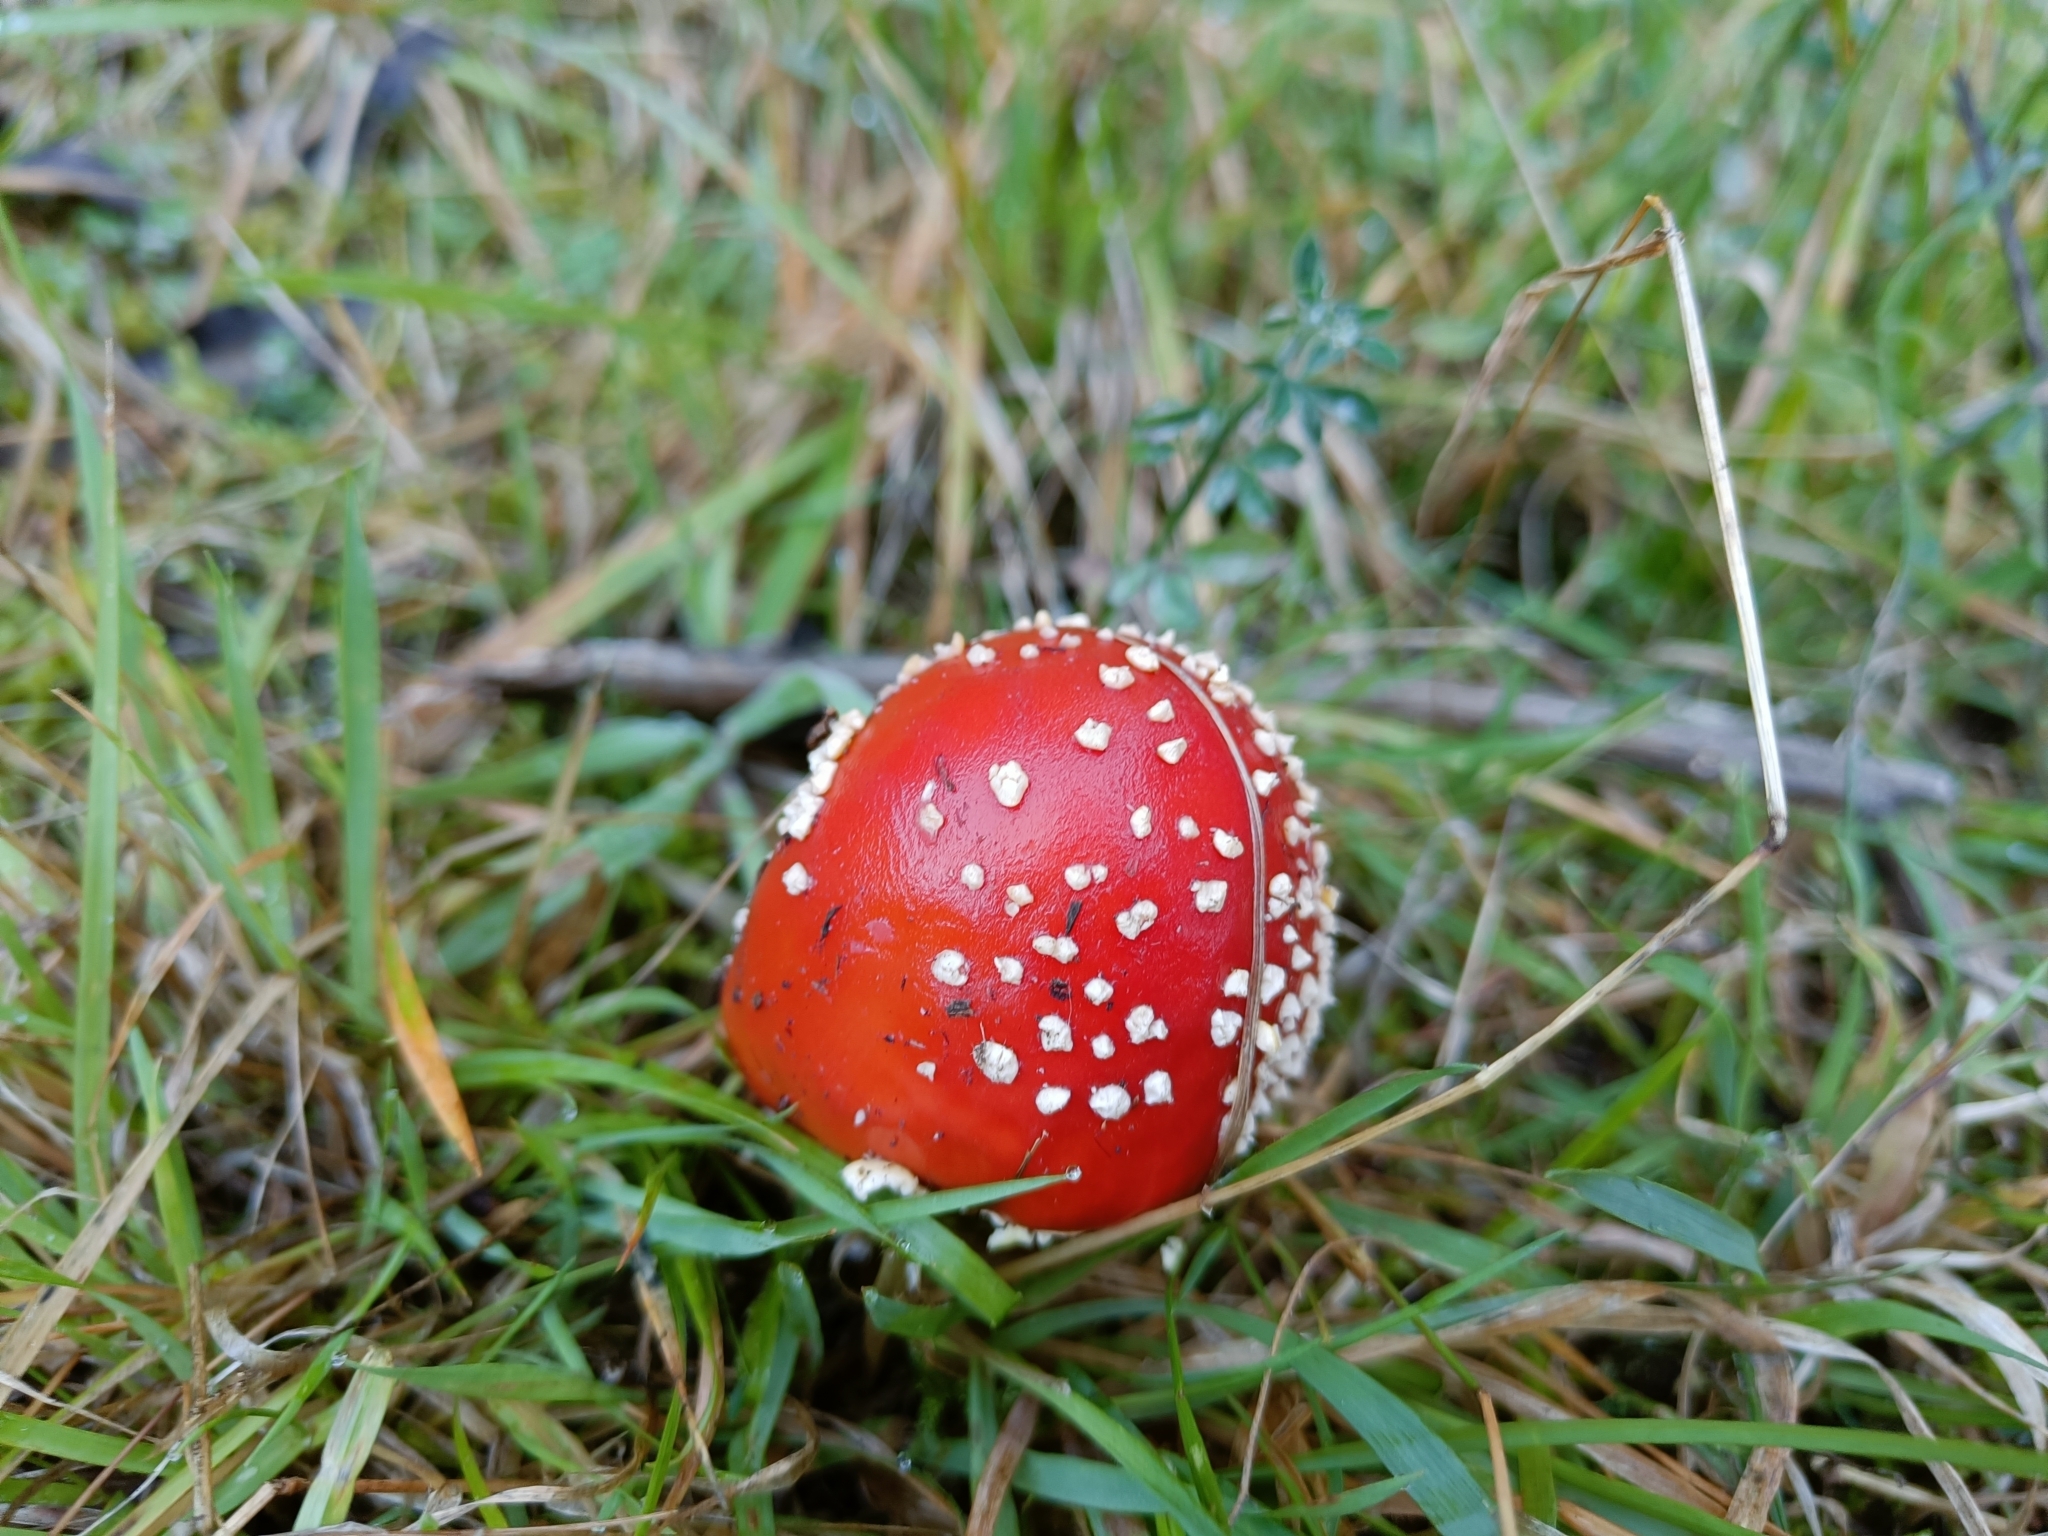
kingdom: Fungi
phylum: Basidiomycota
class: Agaricomycetes
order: Agaricales
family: Amanitaceae
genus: Amanita
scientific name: Amanita muscaria
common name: Fly agaric
